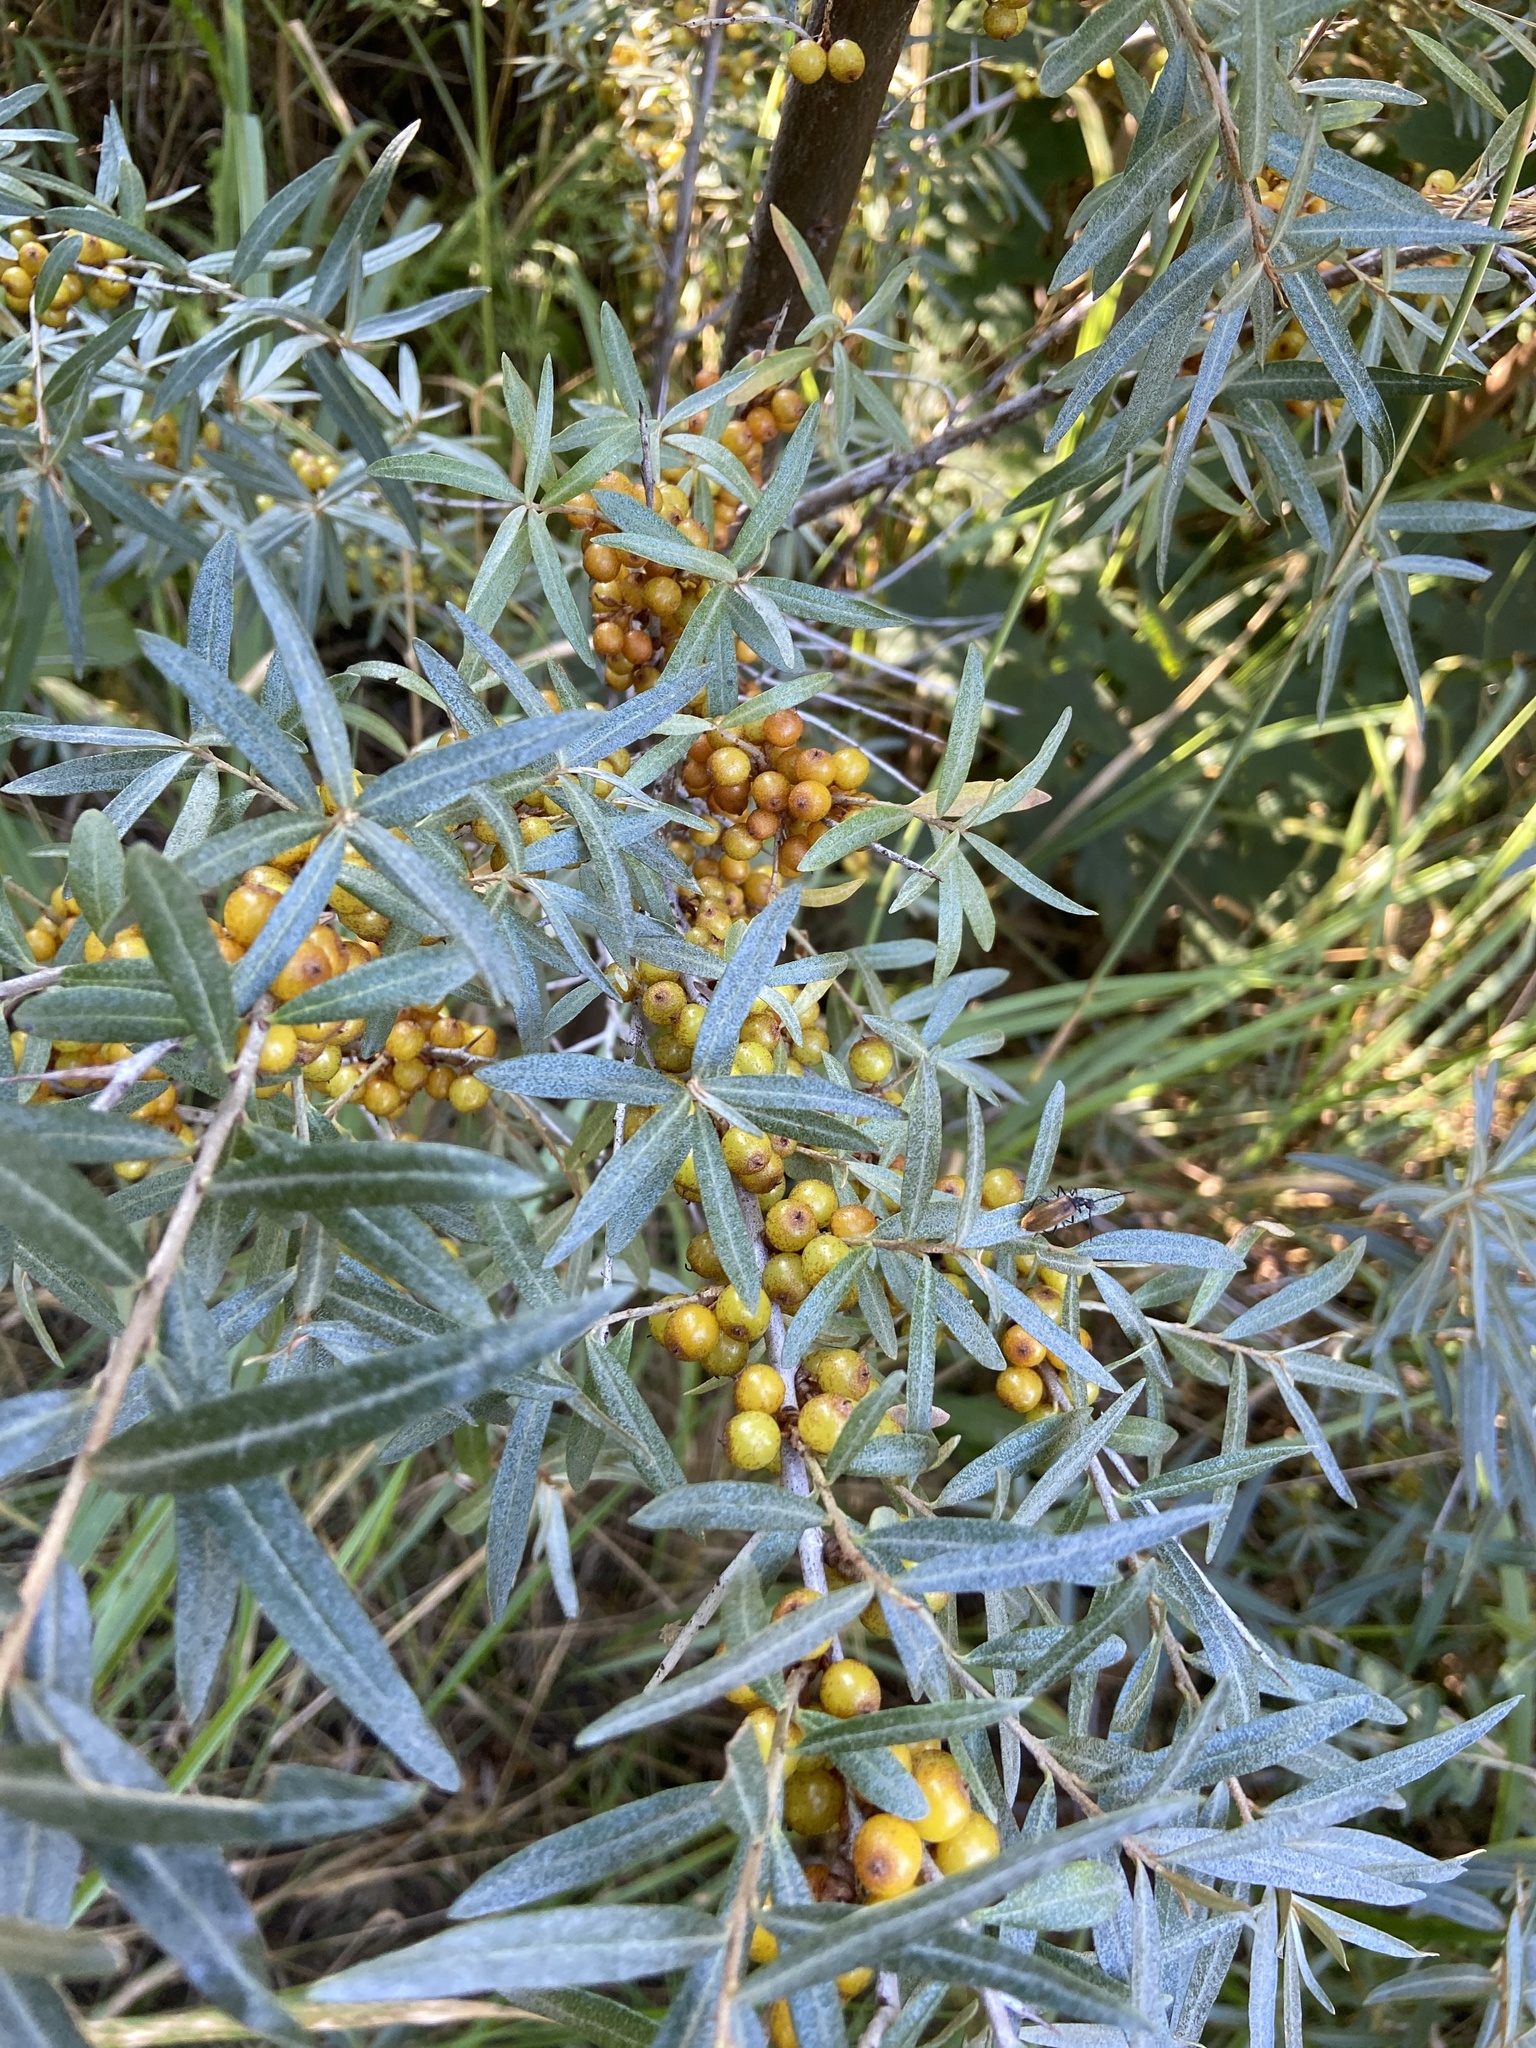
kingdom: Plantae
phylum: Tracheophyta
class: Magnoliopsida
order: Rosales
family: Elaeagnaceae
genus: Hippophae
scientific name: Hippophae rhamnoides
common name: Sea-buckthorn
